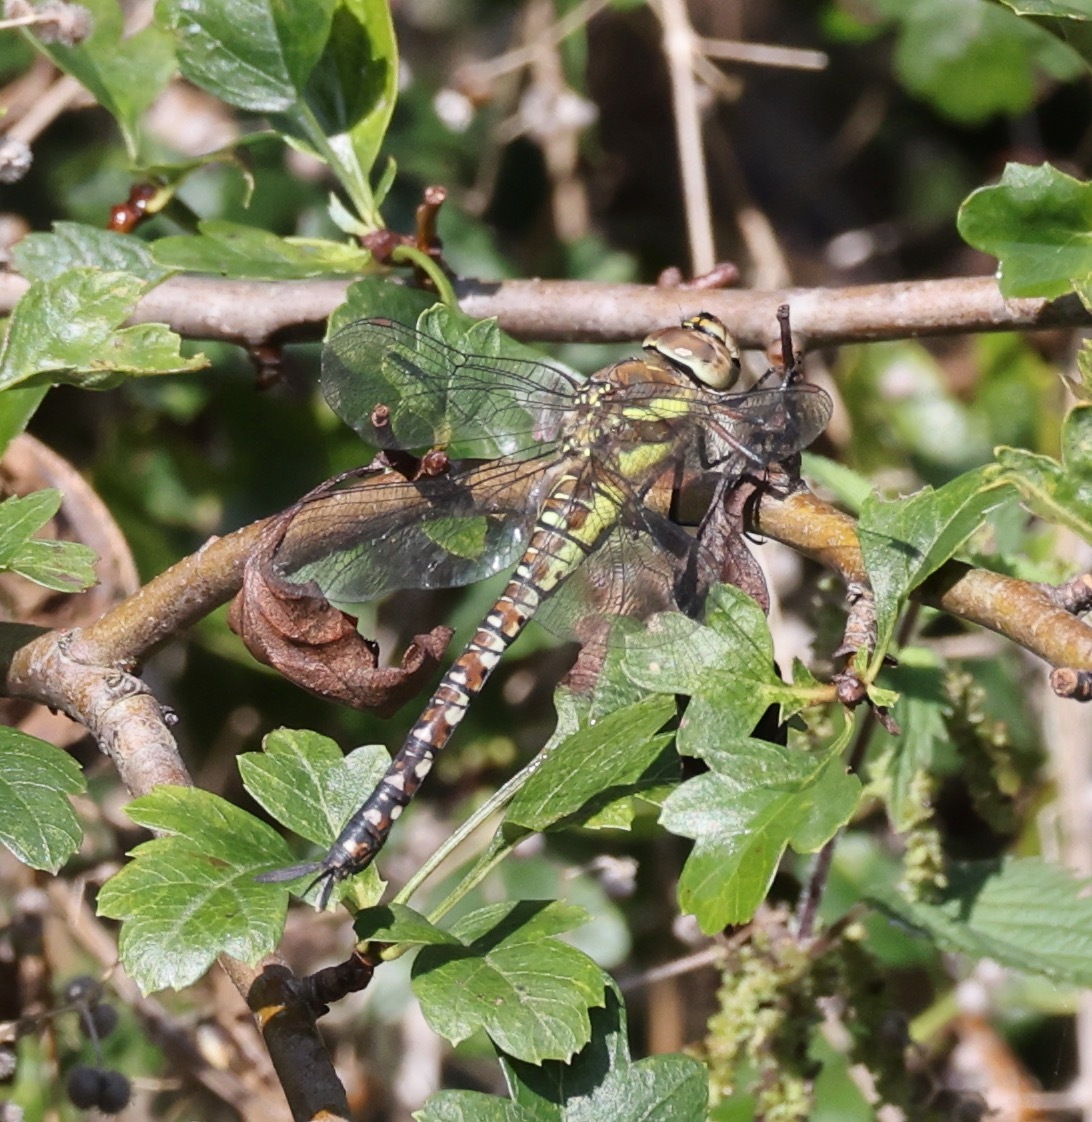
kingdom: Animalia
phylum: Arthropoda
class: Insecta
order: Odonata
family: Aeshnidae
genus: Aeshna
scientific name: Aeshna mixta
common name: Migrant hawker
